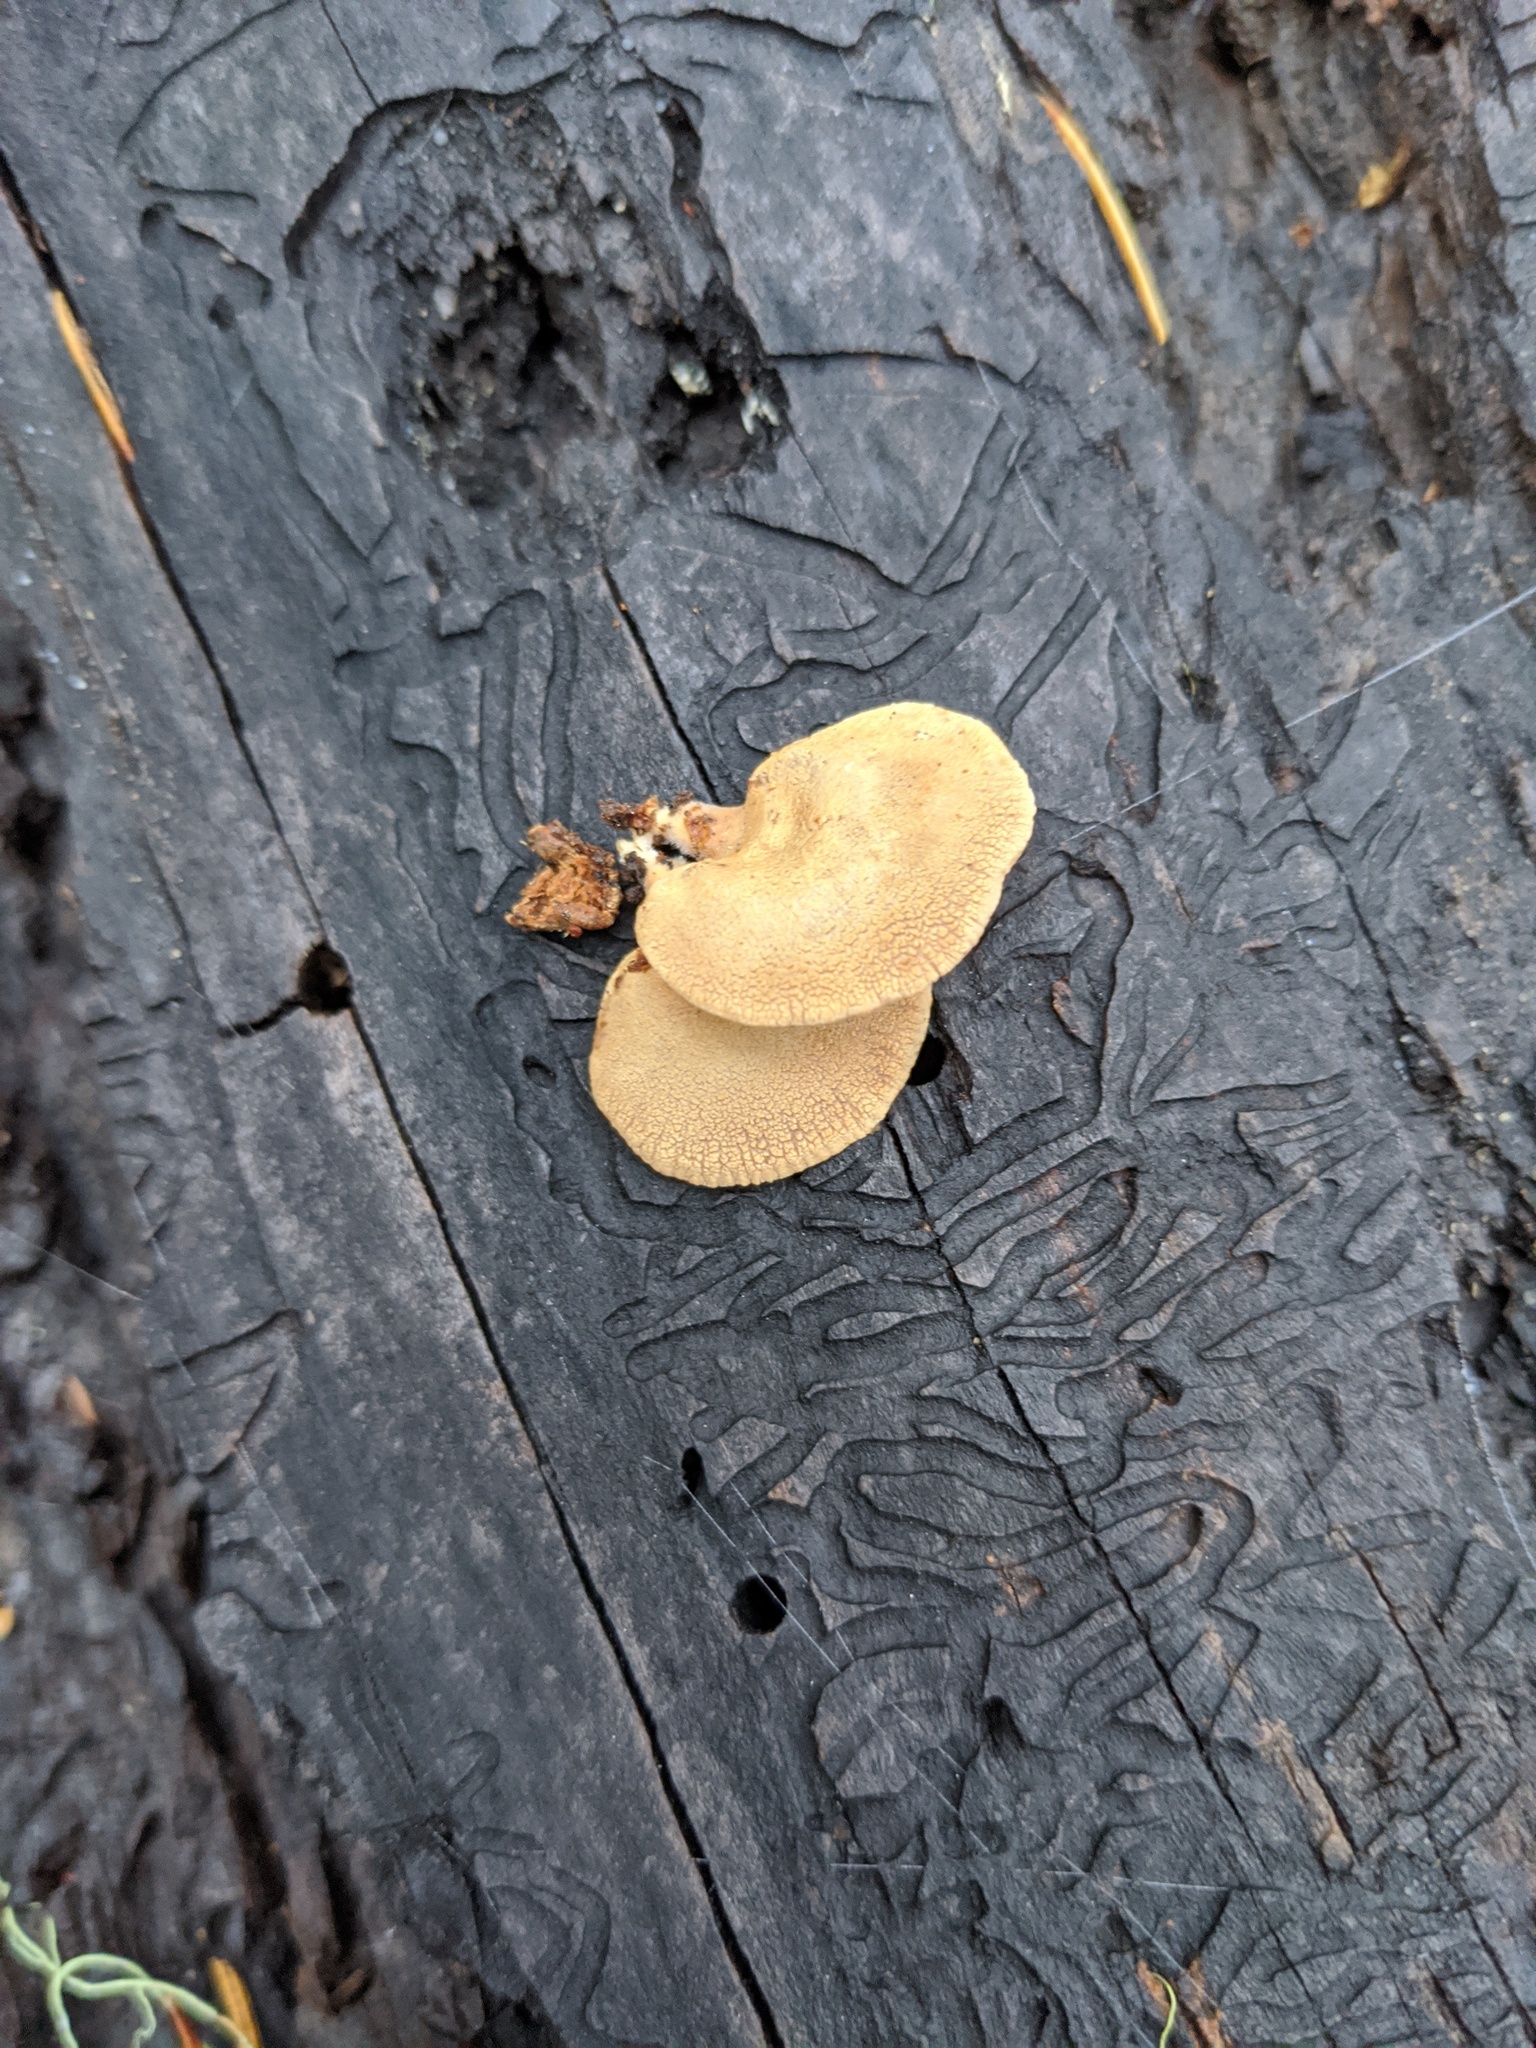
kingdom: Fungi
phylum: Basidiomycota
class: Agaricomycetes
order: Agaricales
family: Mycenaceae
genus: Panellus
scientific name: Panellus stipticus
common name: Bitter oysterling
